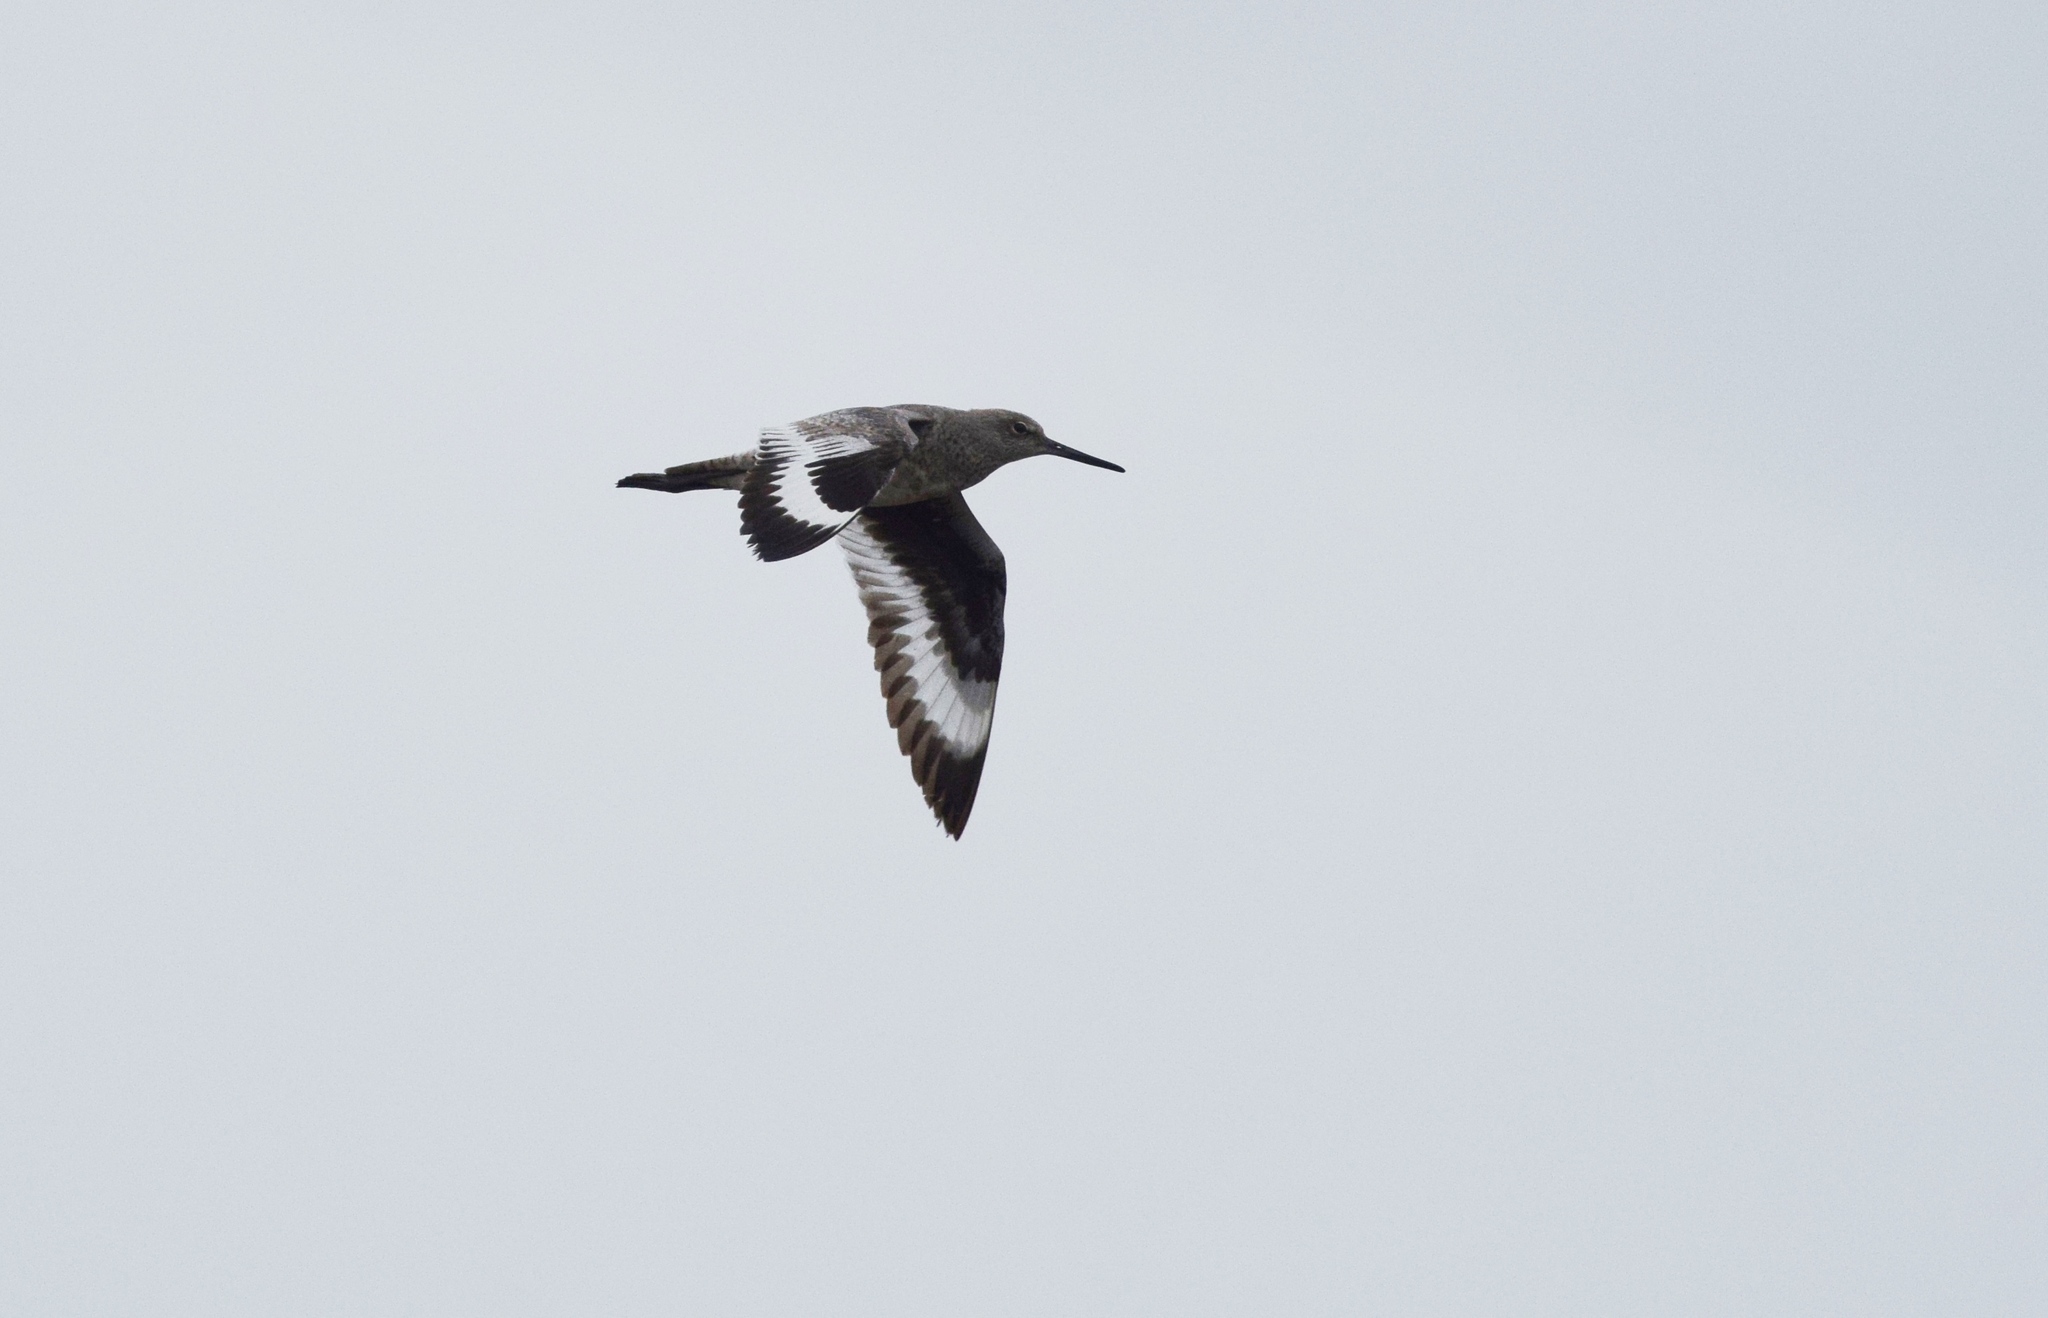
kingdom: Animalia
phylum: Chordata
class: Aves
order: Charadriiformes
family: Scolopacidae
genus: Tringa
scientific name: Tringa semipalmata
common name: Willet
